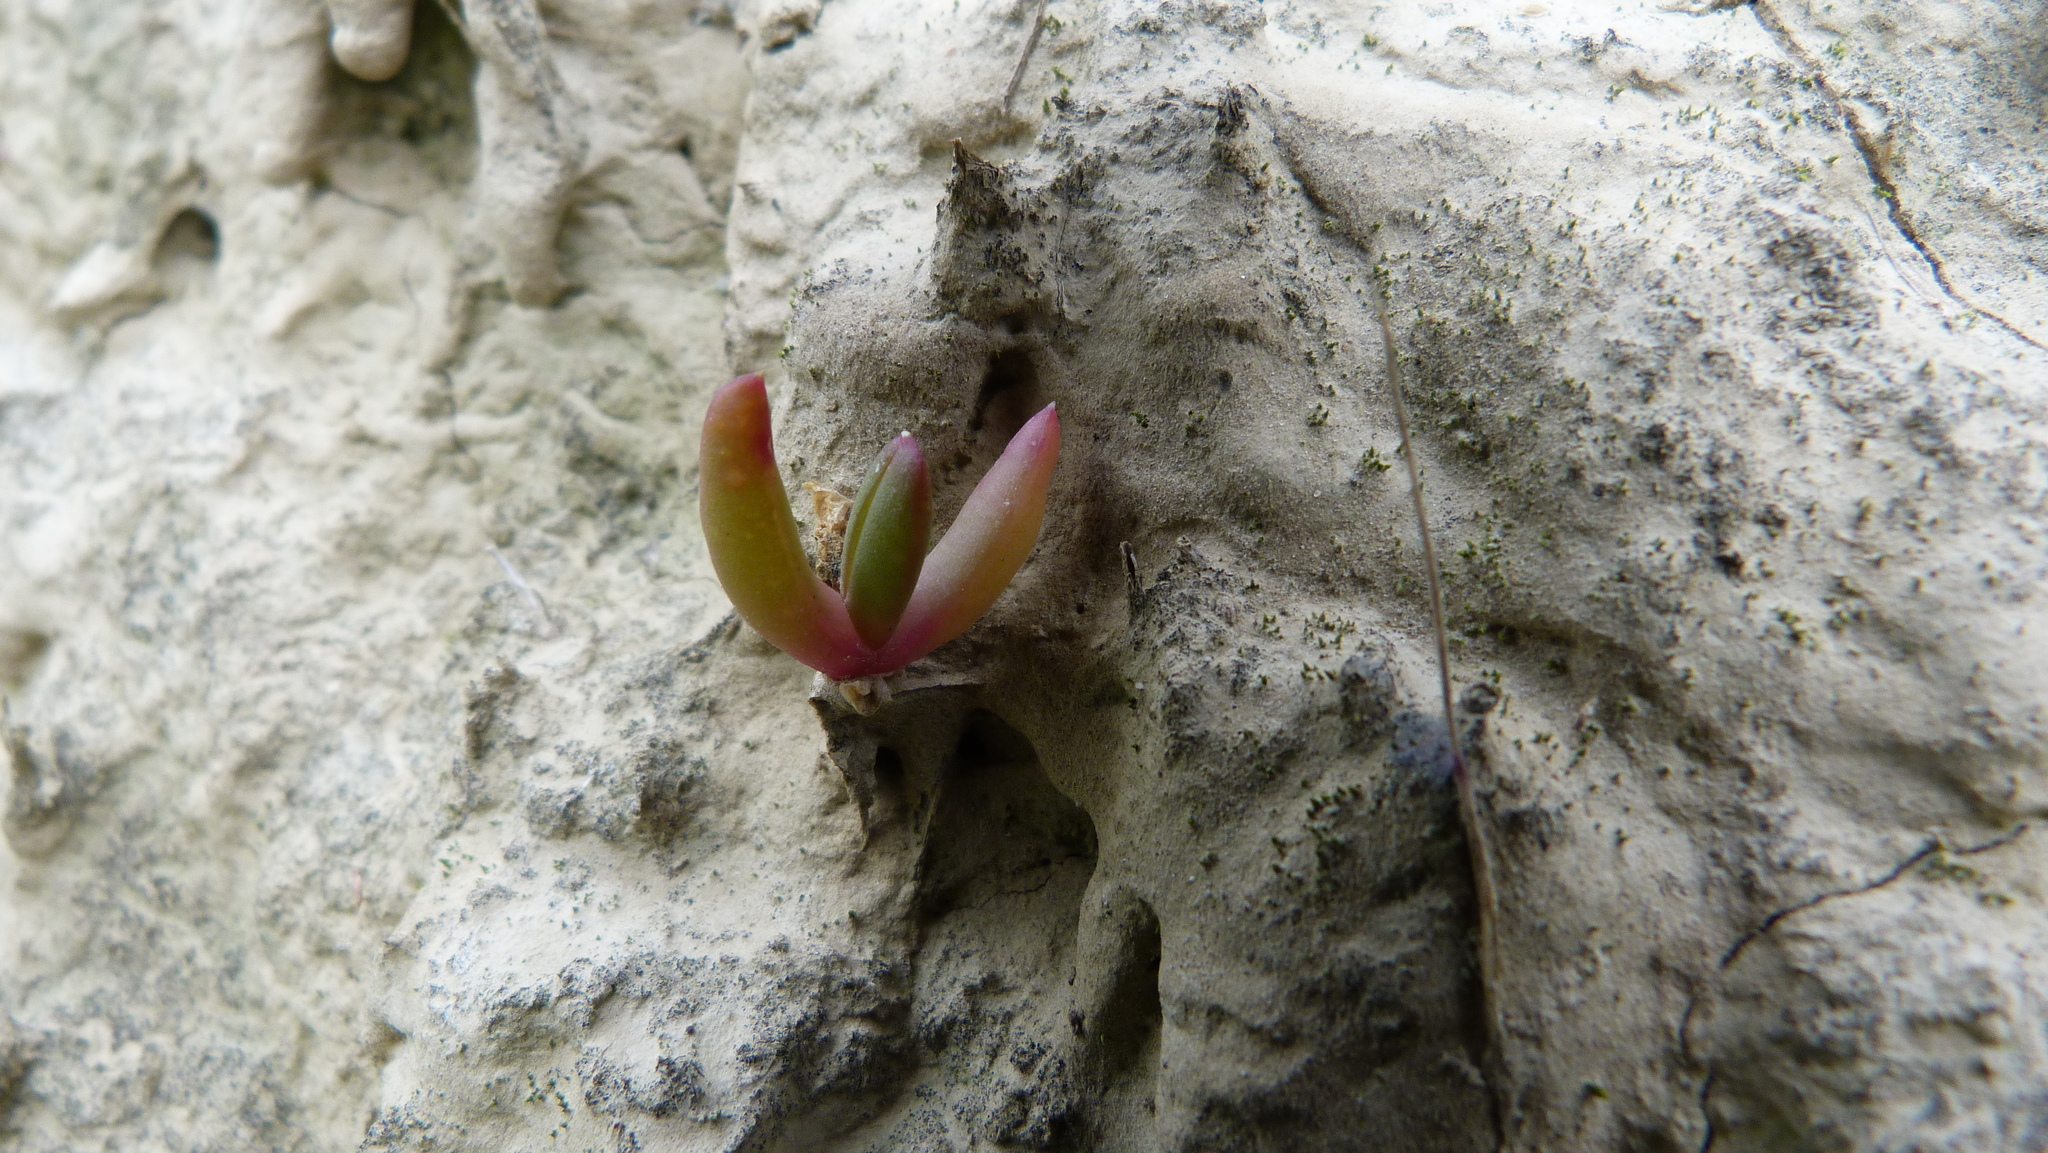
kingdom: Plantae
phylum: Tracheophyta
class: Magnoliopsida
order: Caryophyllales
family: Aizoaceae
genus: Disphyma
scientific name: Disphyma australe
